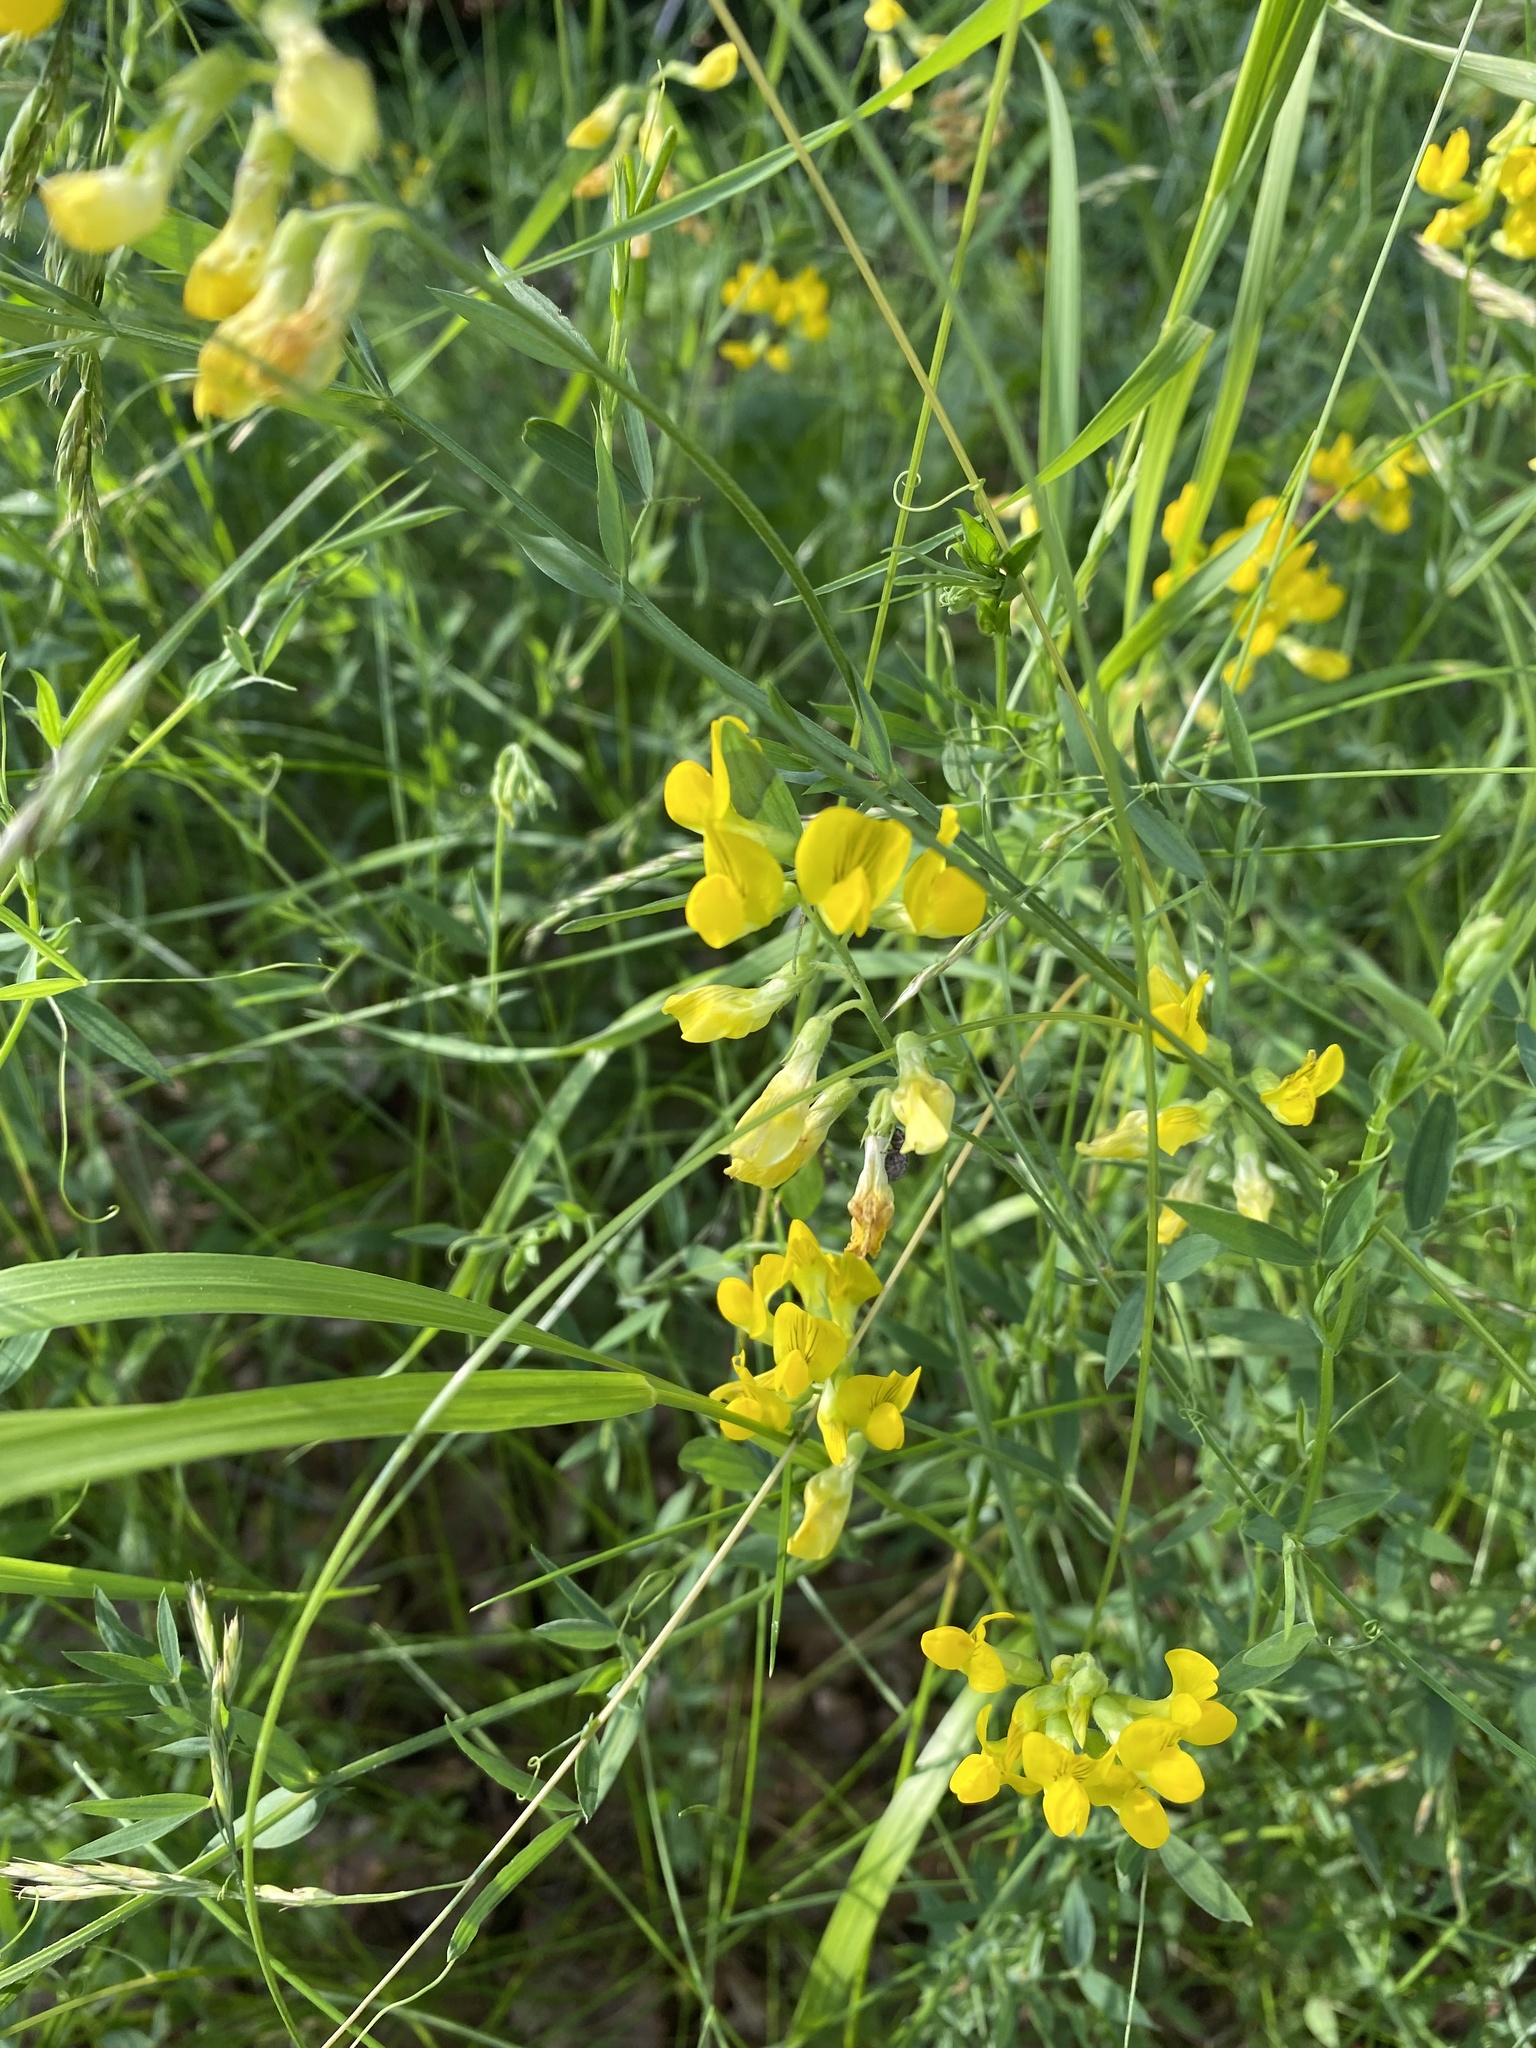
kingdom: Plantae
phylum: Tracheophyta
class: Magnoliopsida
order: Fabales
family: Fabaceae
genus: Lathyrus
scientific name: Lathyrus pratensis
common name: Meadow vetchling
